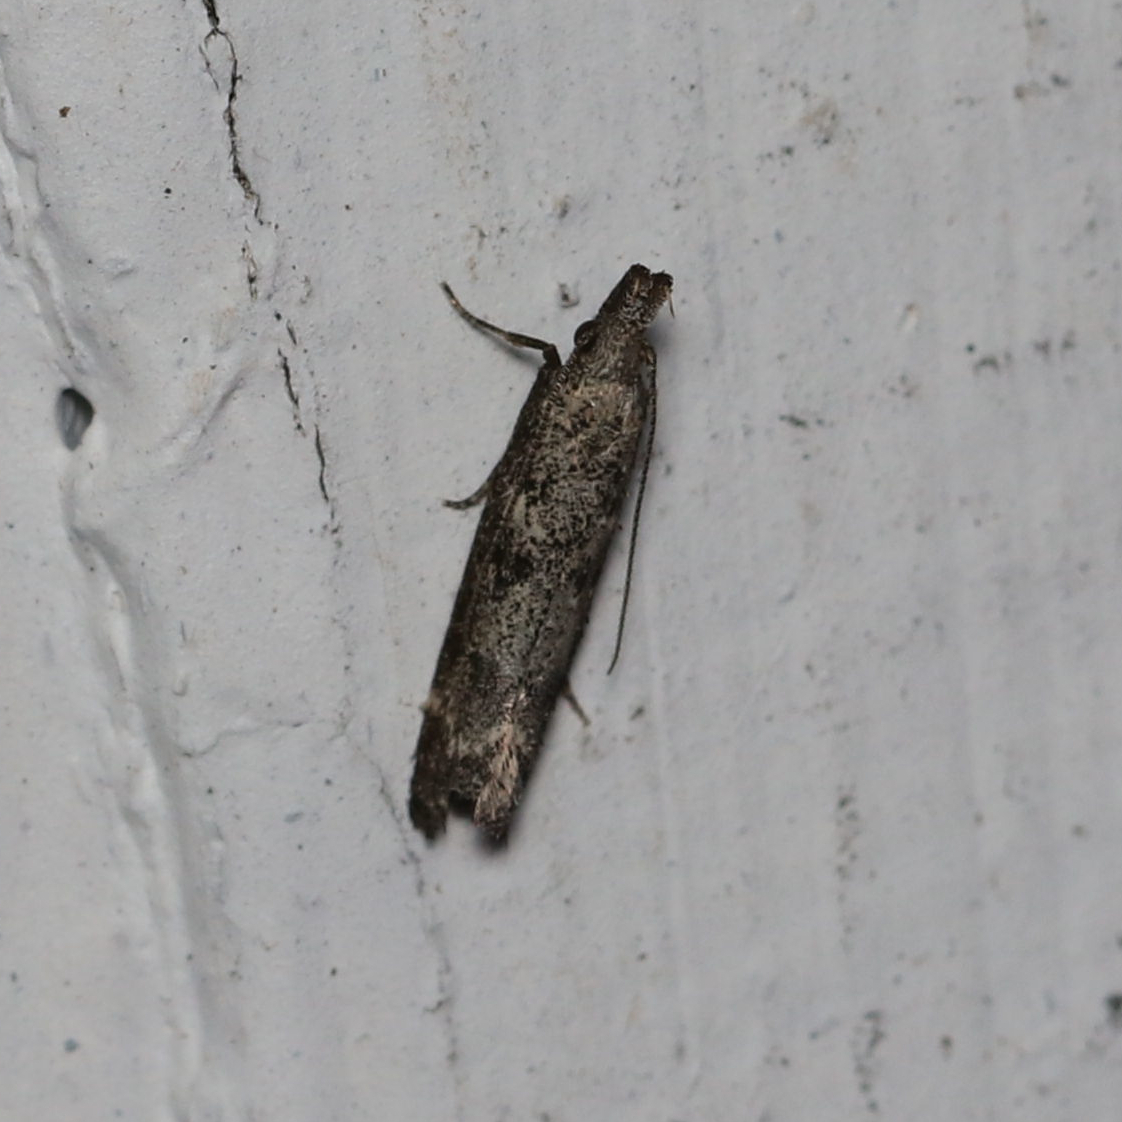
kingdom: Animalia
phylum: Arthropoda
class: Insecta
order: Lepidoptera
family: Gelechiidae
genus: Dichomeris
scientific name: Dichomeris inversella
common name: Inverse dichomeris moth
